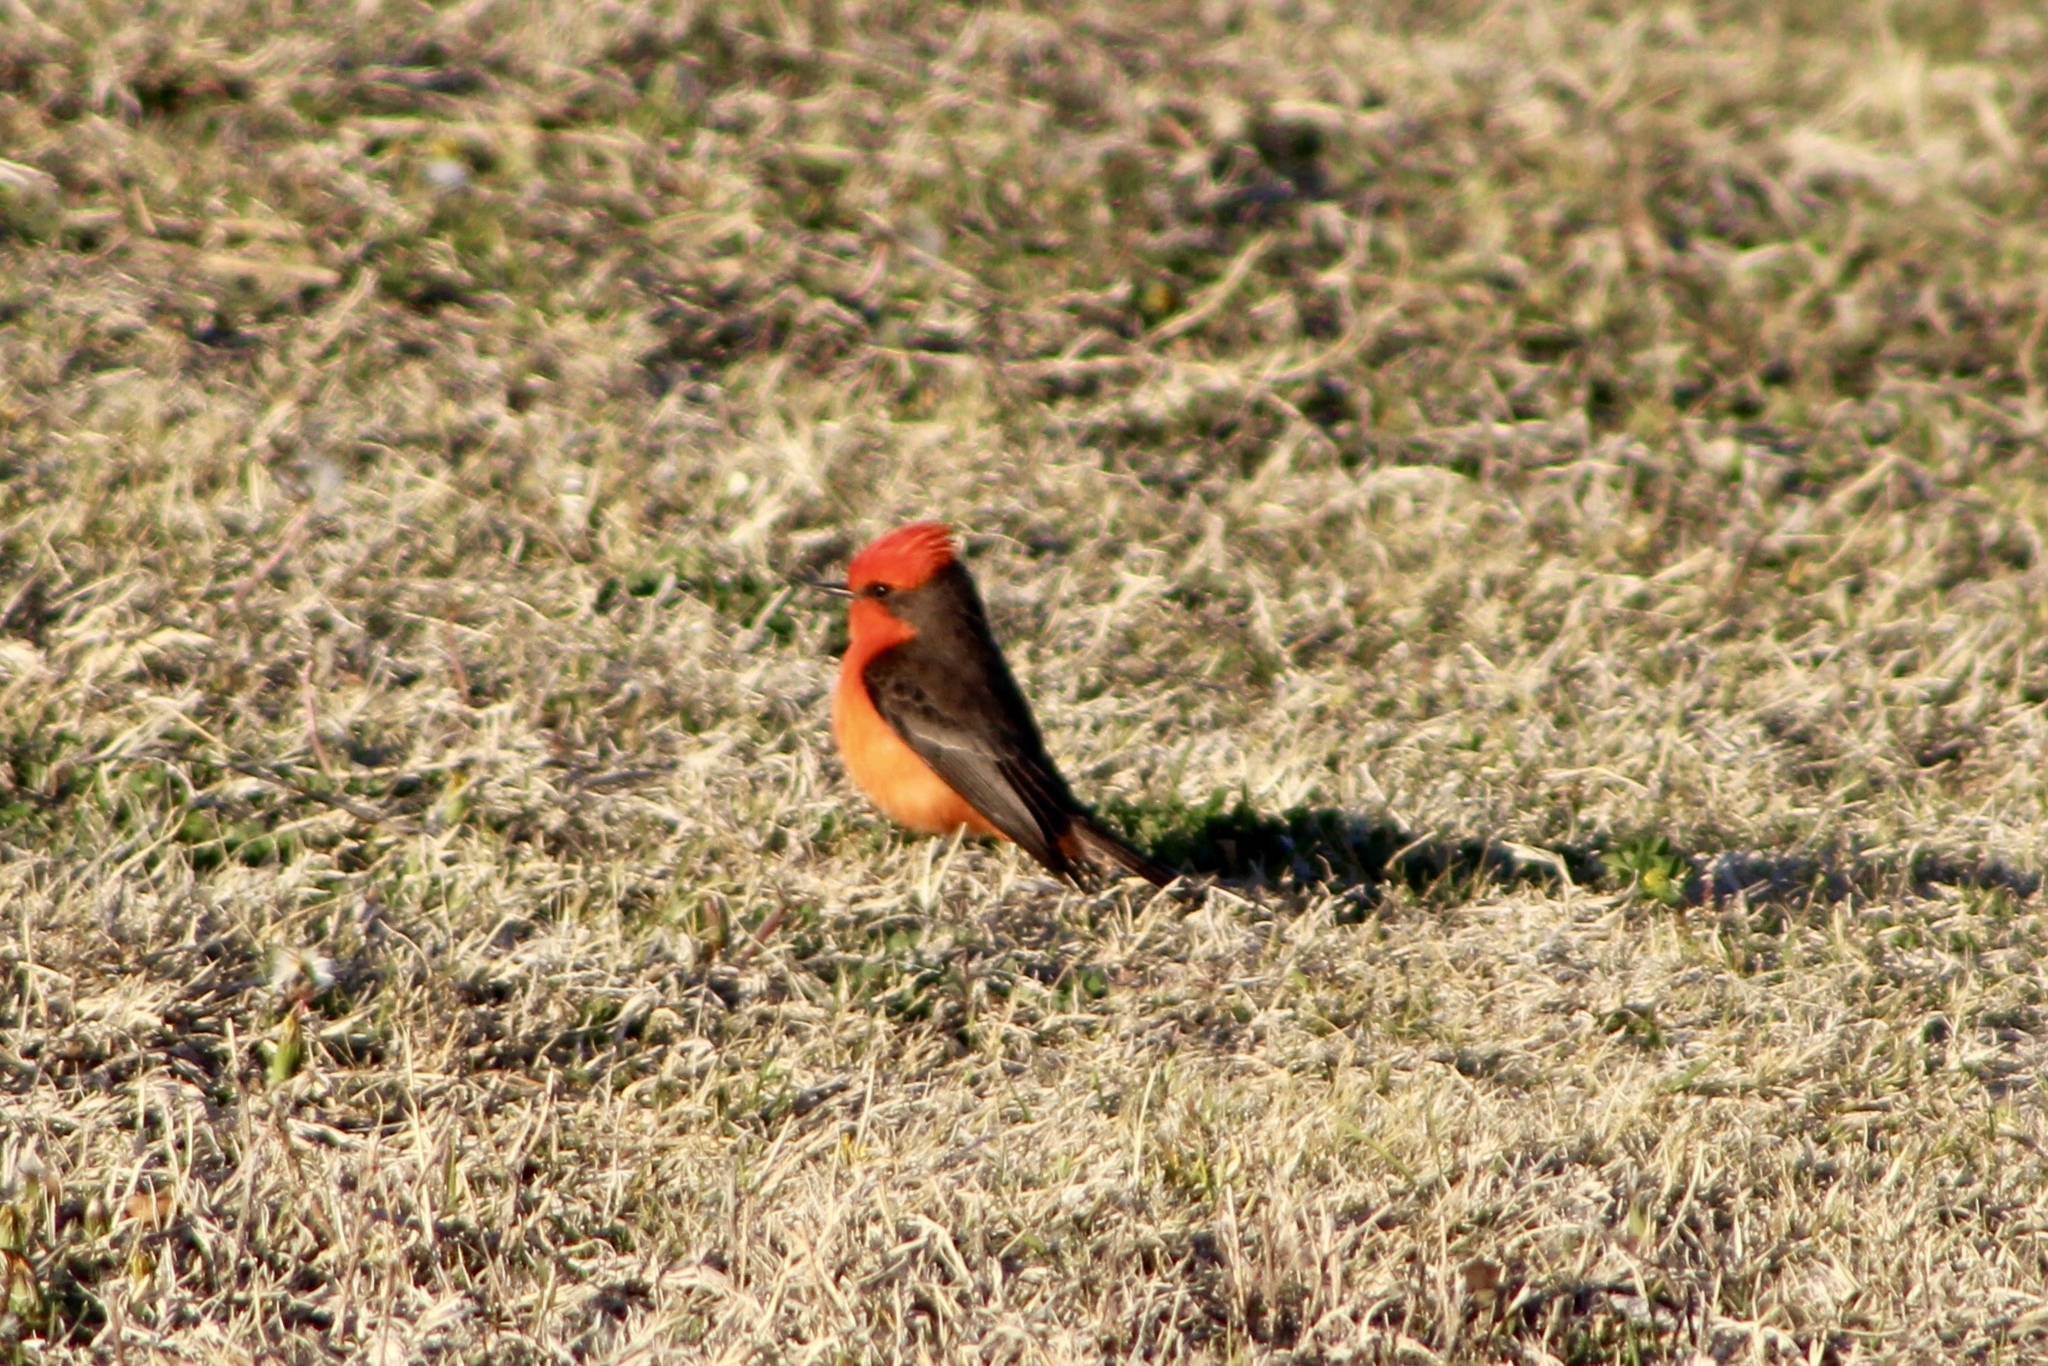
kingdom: Animalia
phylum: Chordata
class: Aves
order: Passeriformes
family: Tyrannidae
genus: Pyrocephalus
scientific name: Pyrocephalus rubinus
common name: Vermilion flycatcher
